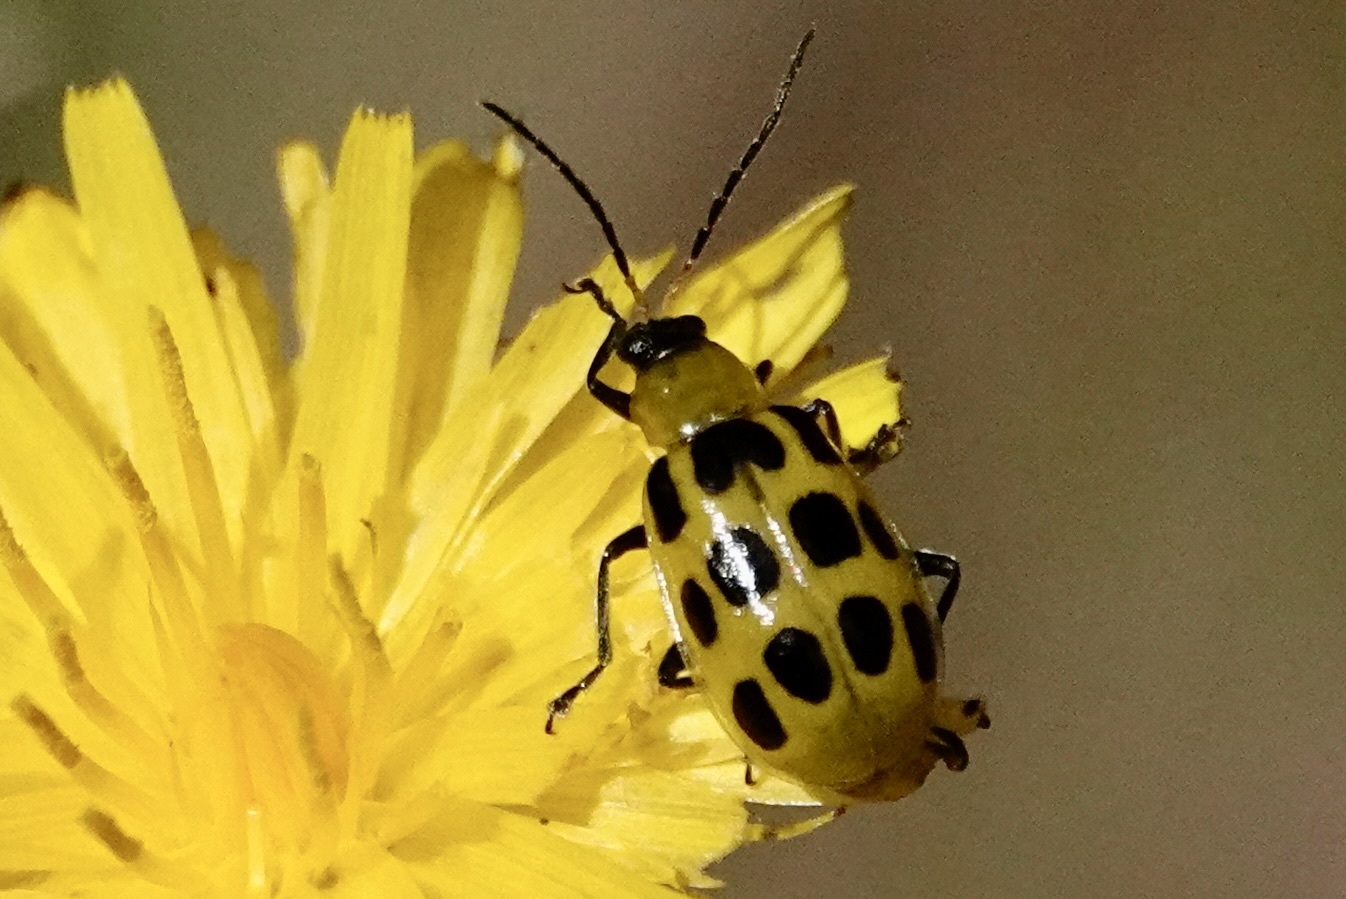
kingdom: Animalia
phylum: Arthropoda
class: Insecta
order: Coleoptera
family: Chrysomelidae
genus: Diabrotica
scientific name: Diabrotica undecimpunctata
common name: Spotted cucumber beetle
